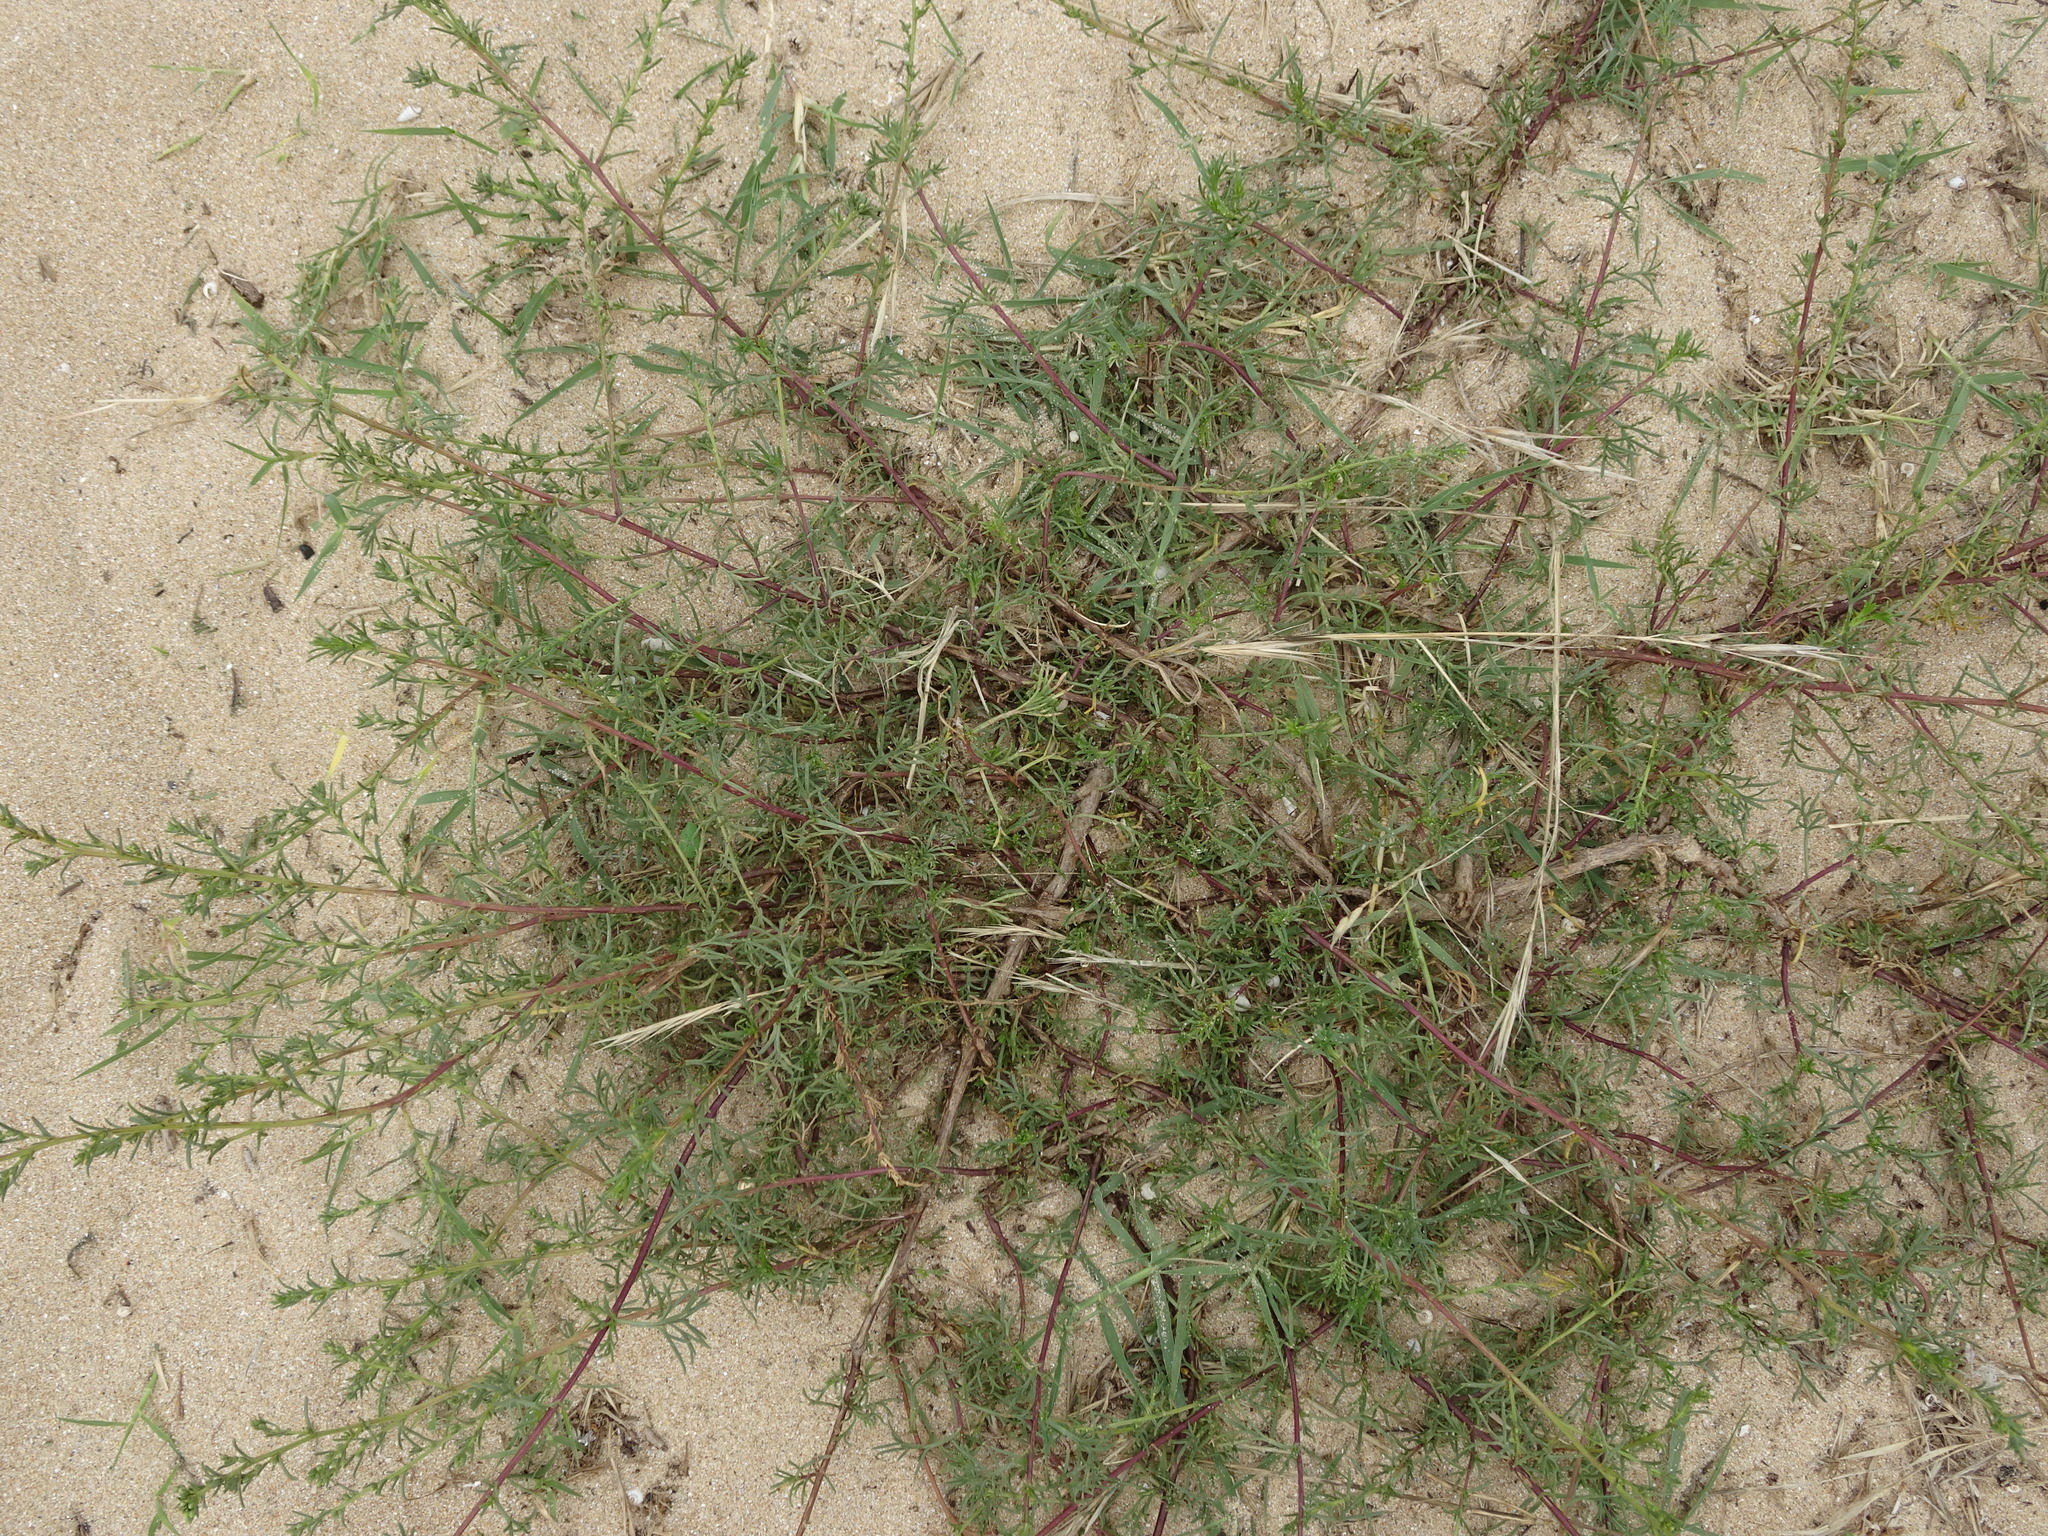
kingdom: Plantae
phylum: Tracheophyta
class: Magnoliopsida
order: Asterales
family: Asteraceae
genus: Artemisia
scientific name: Artemisia crithmifolia
